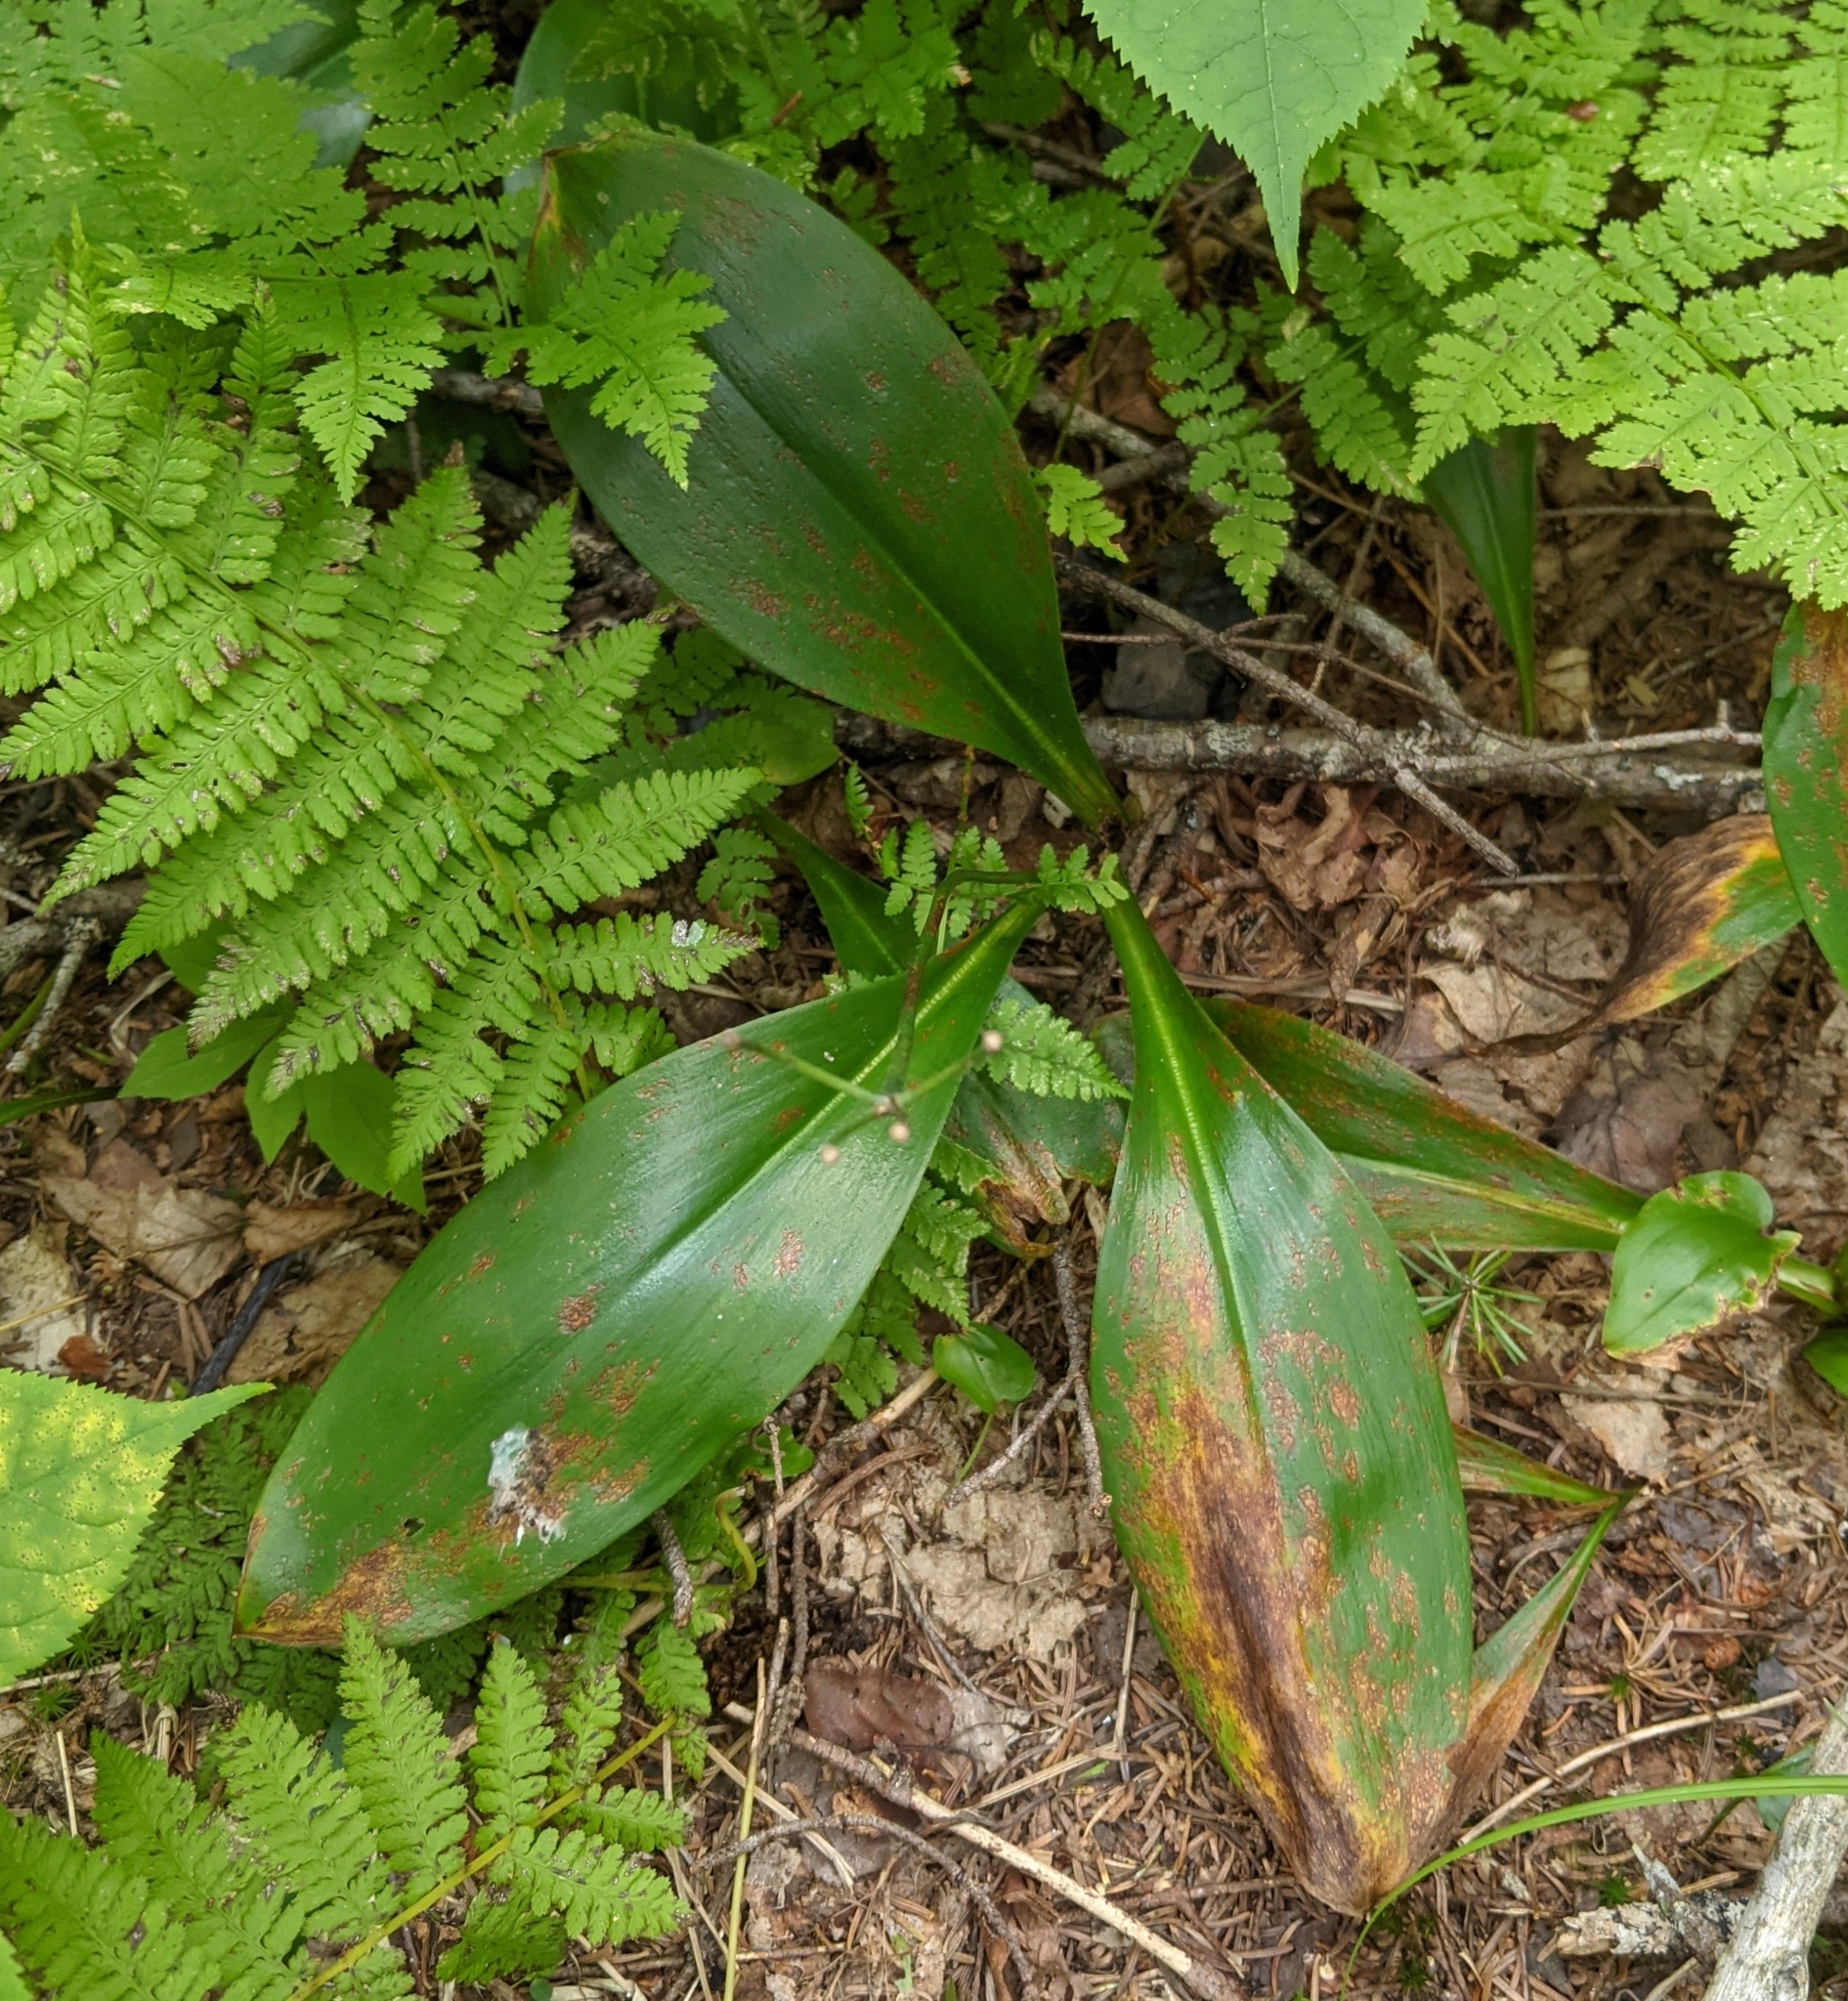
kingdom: Plantae
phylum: Tracheophyta
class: Liliopsida
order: Liliales
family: Liliaceae
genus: Clintonia
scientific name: Clintonia borealis
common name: Yellow clintonia
